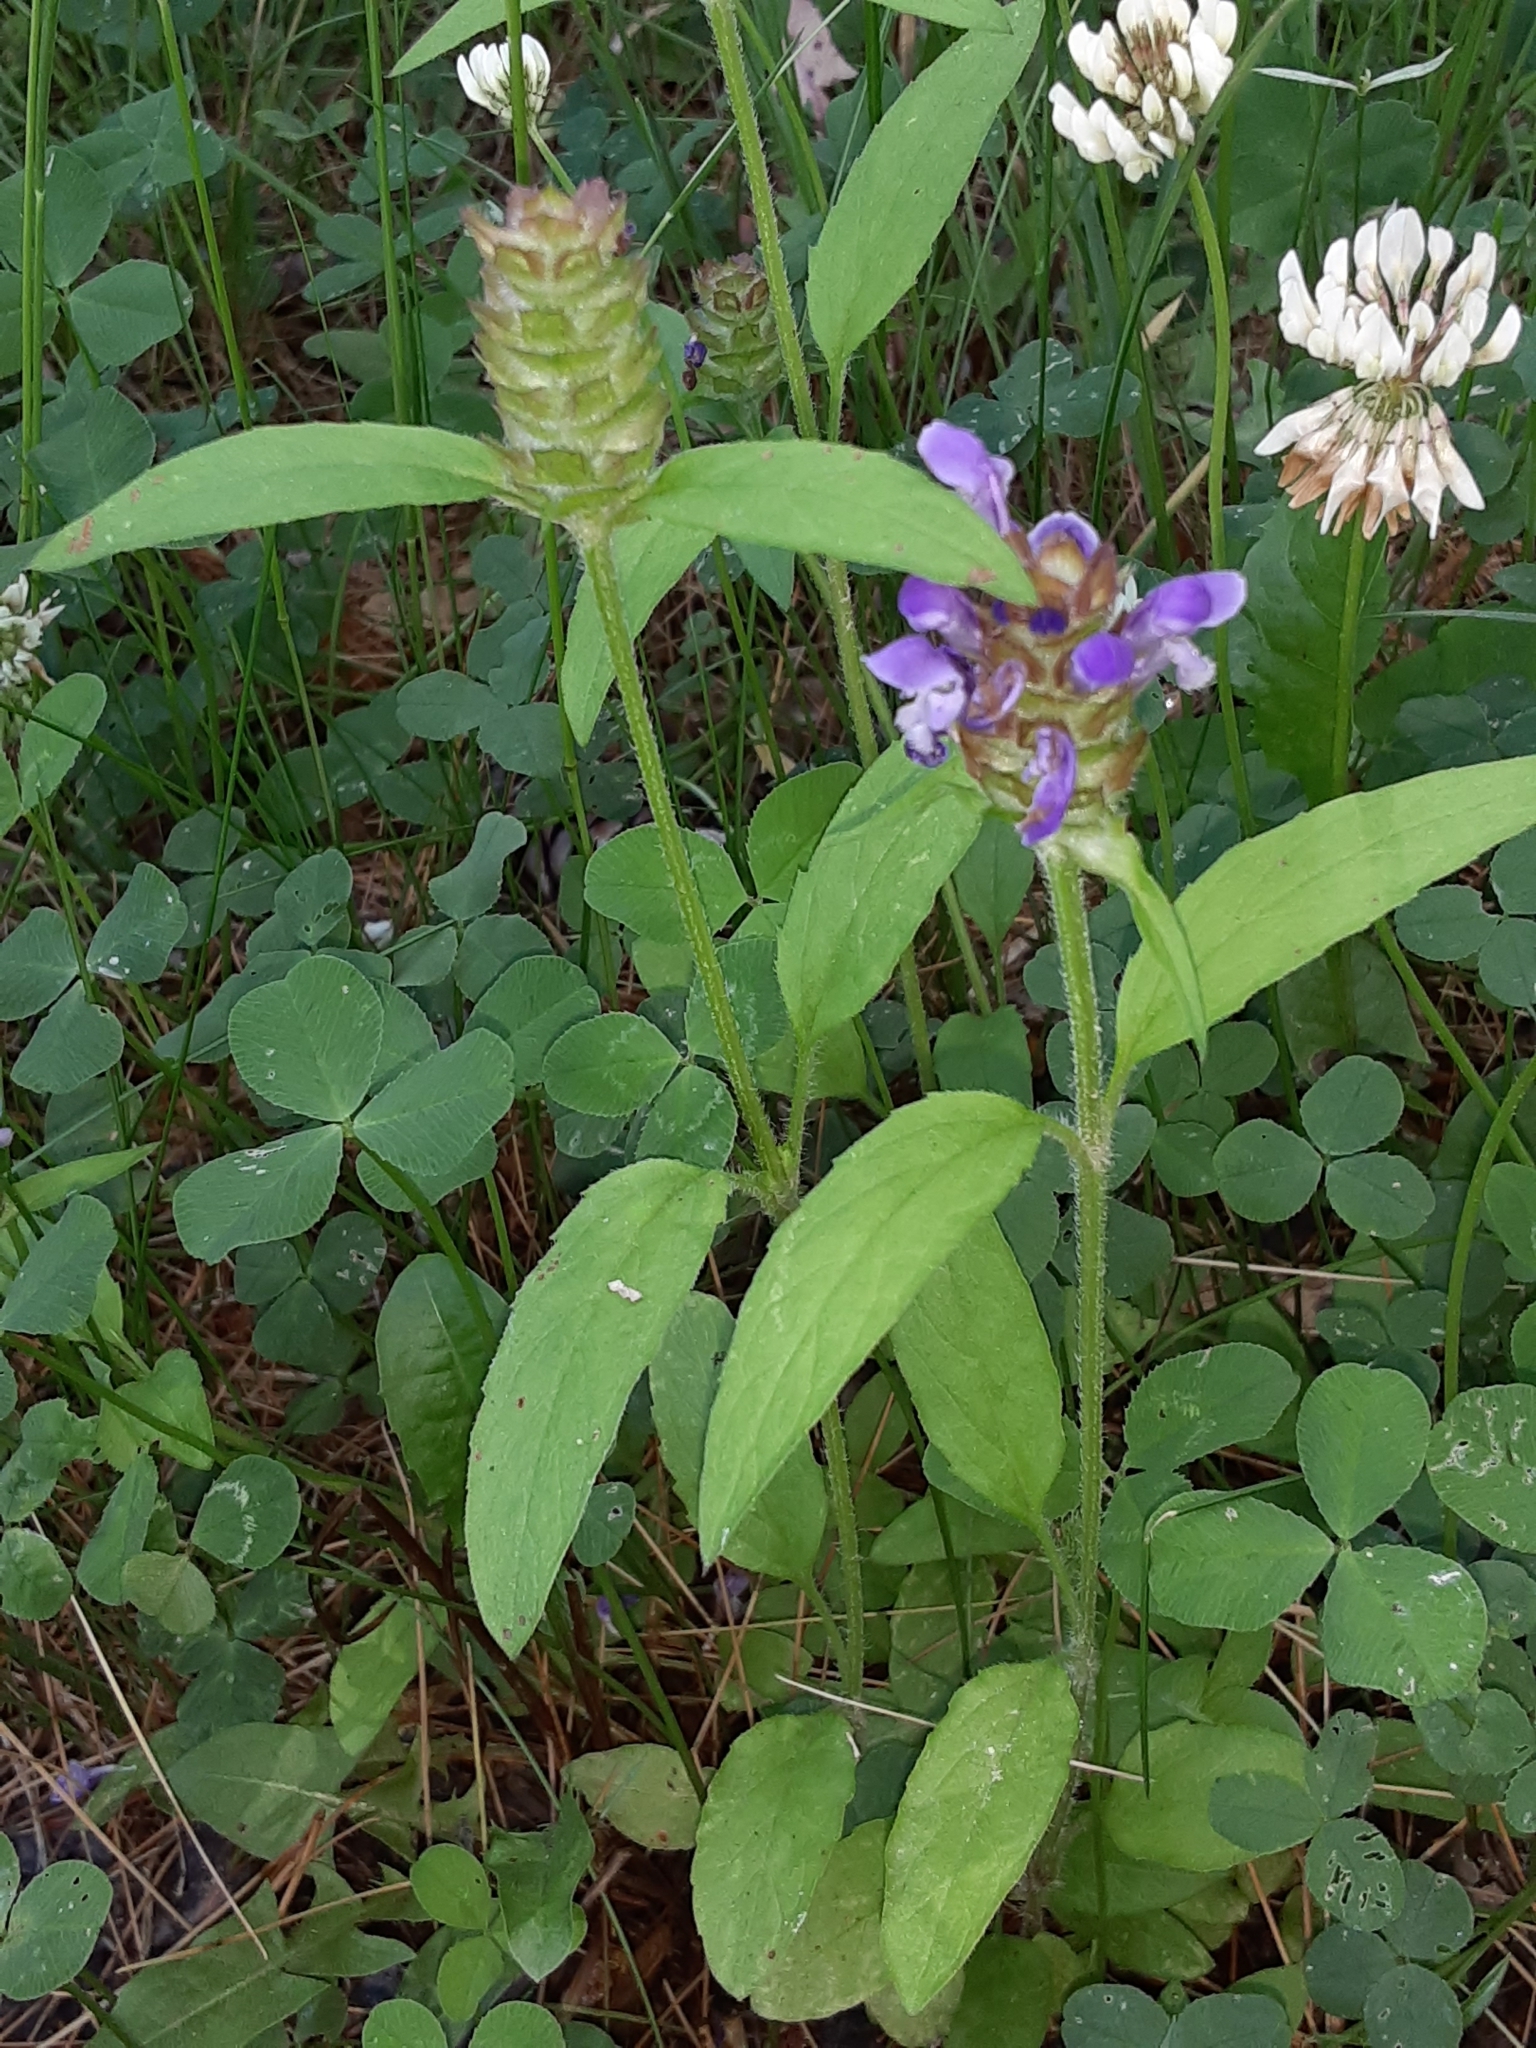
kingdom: Plantae
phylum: Tracheophyta
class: Magnoliopsida
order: Lamiales
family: Lamiaceae
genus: Prunella
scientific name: Prunella vulgaris
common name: Heal-all
